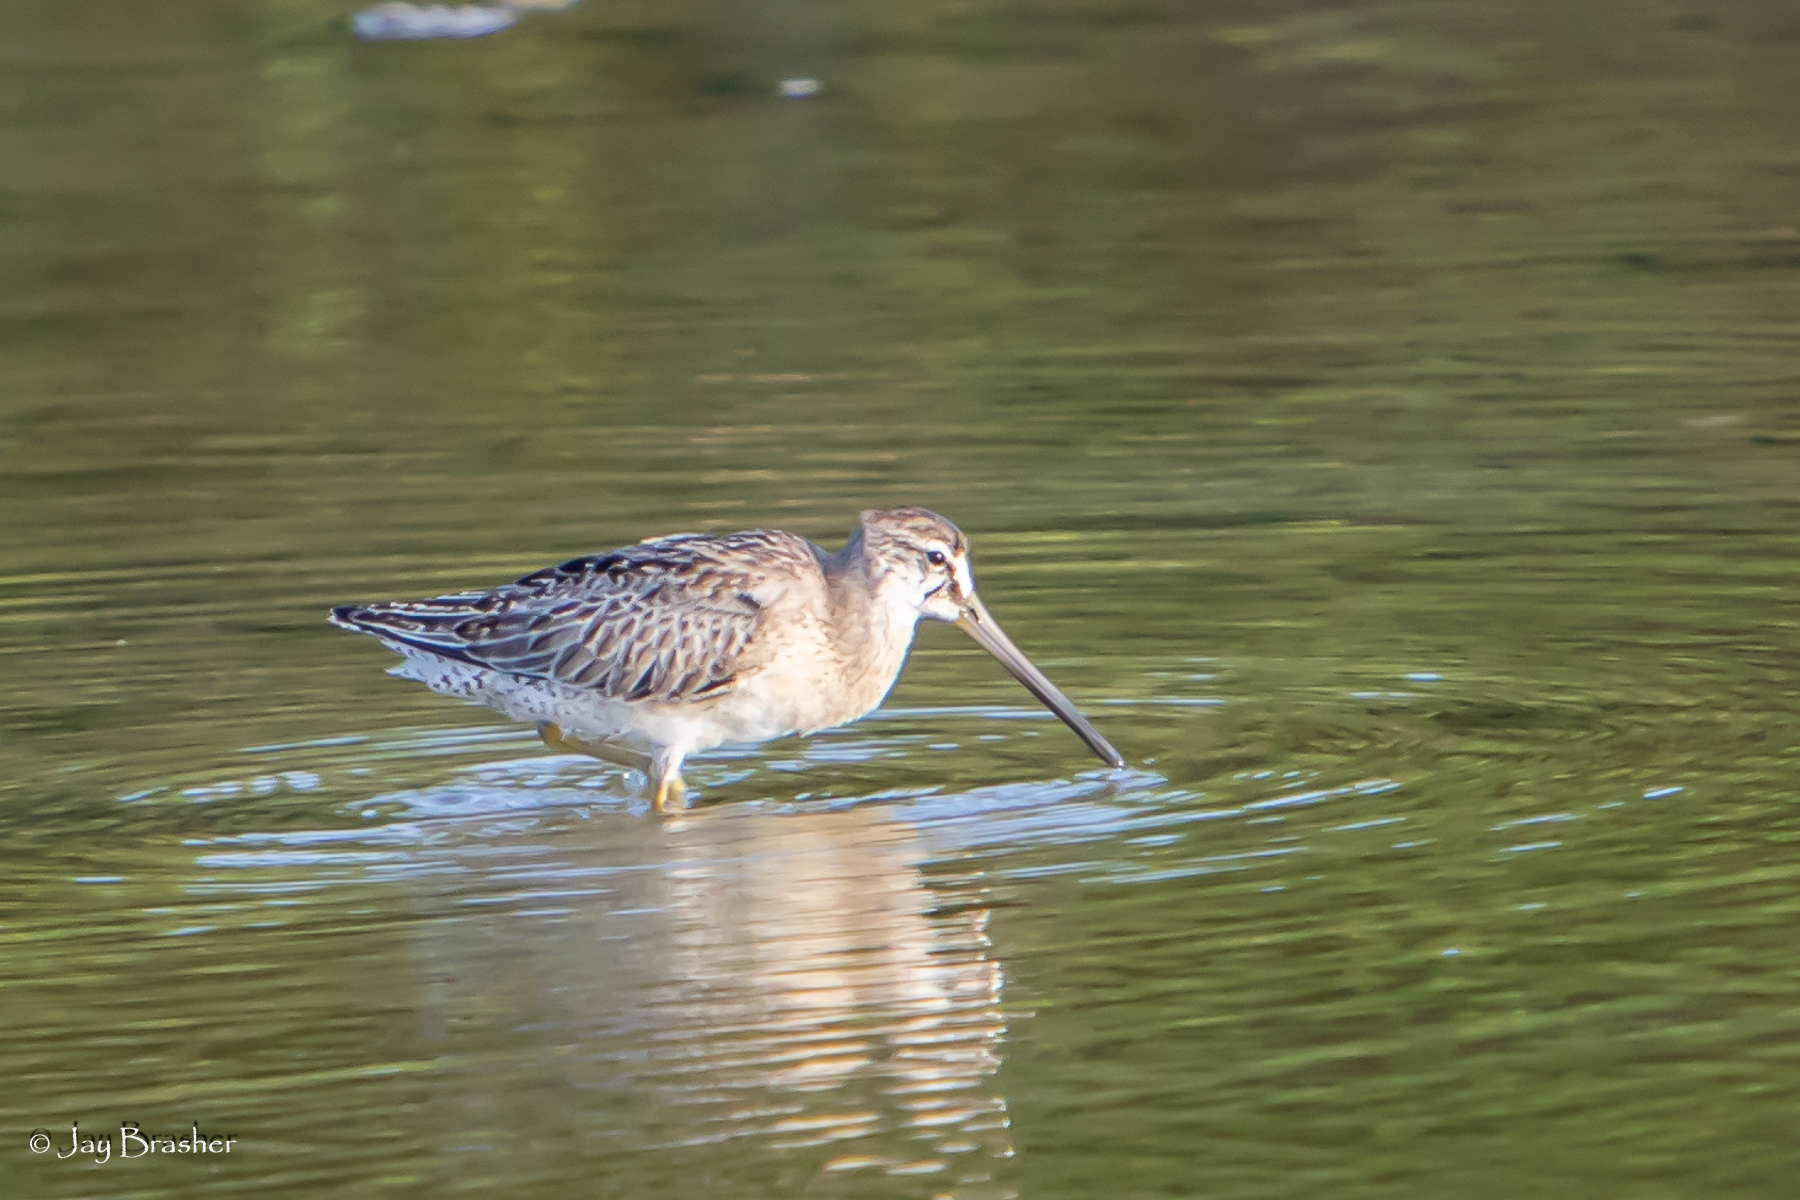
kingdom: Animalia
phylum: Chordata
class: Aves
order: Charadriiformes
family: Scolopacidae
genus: Limnodromus
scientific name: Limnodromus griseus
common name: Short-billed dowitcher
